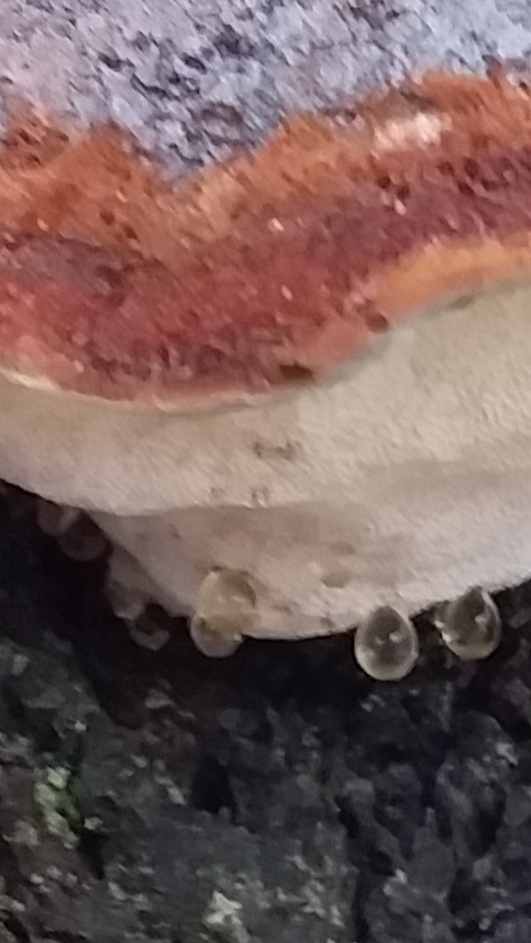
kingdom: Fungi
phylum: Basidiomycota
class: Agaricomycetes
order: Polyporales
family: Dacryobolaceae
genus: Oligoporus
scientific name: Oligoporus pelliculosus
